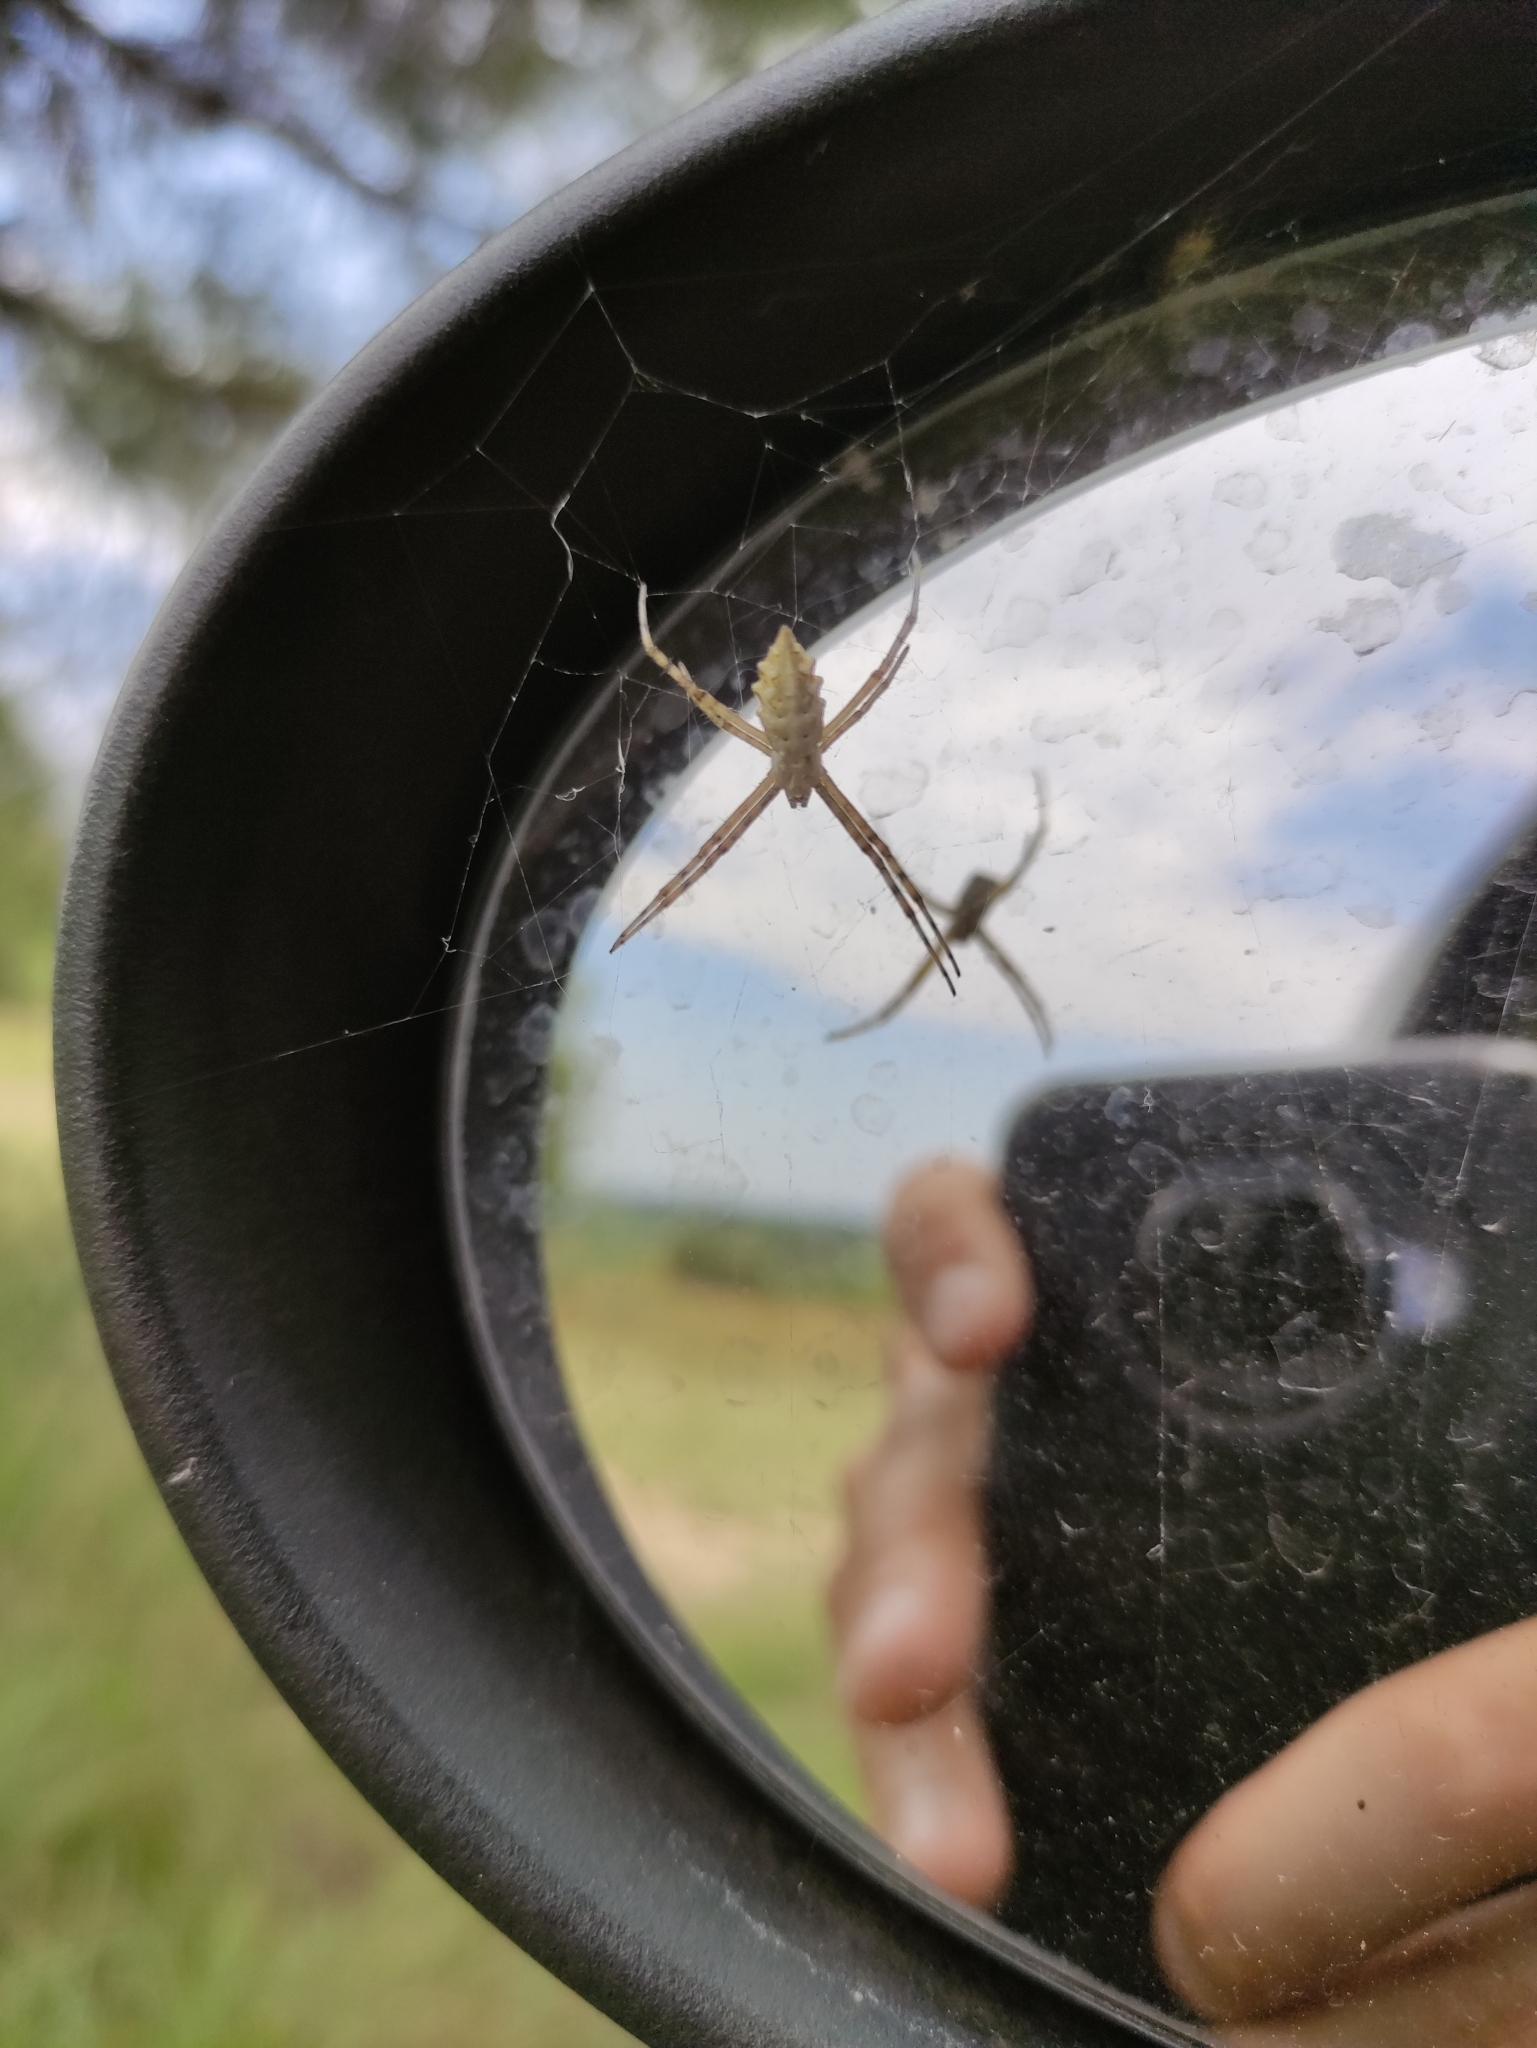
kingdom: Animalia
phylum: Arthropoda
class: Arachnida
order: Araneae
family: Araneidae
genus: Argiope
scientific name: Argiope lobata
